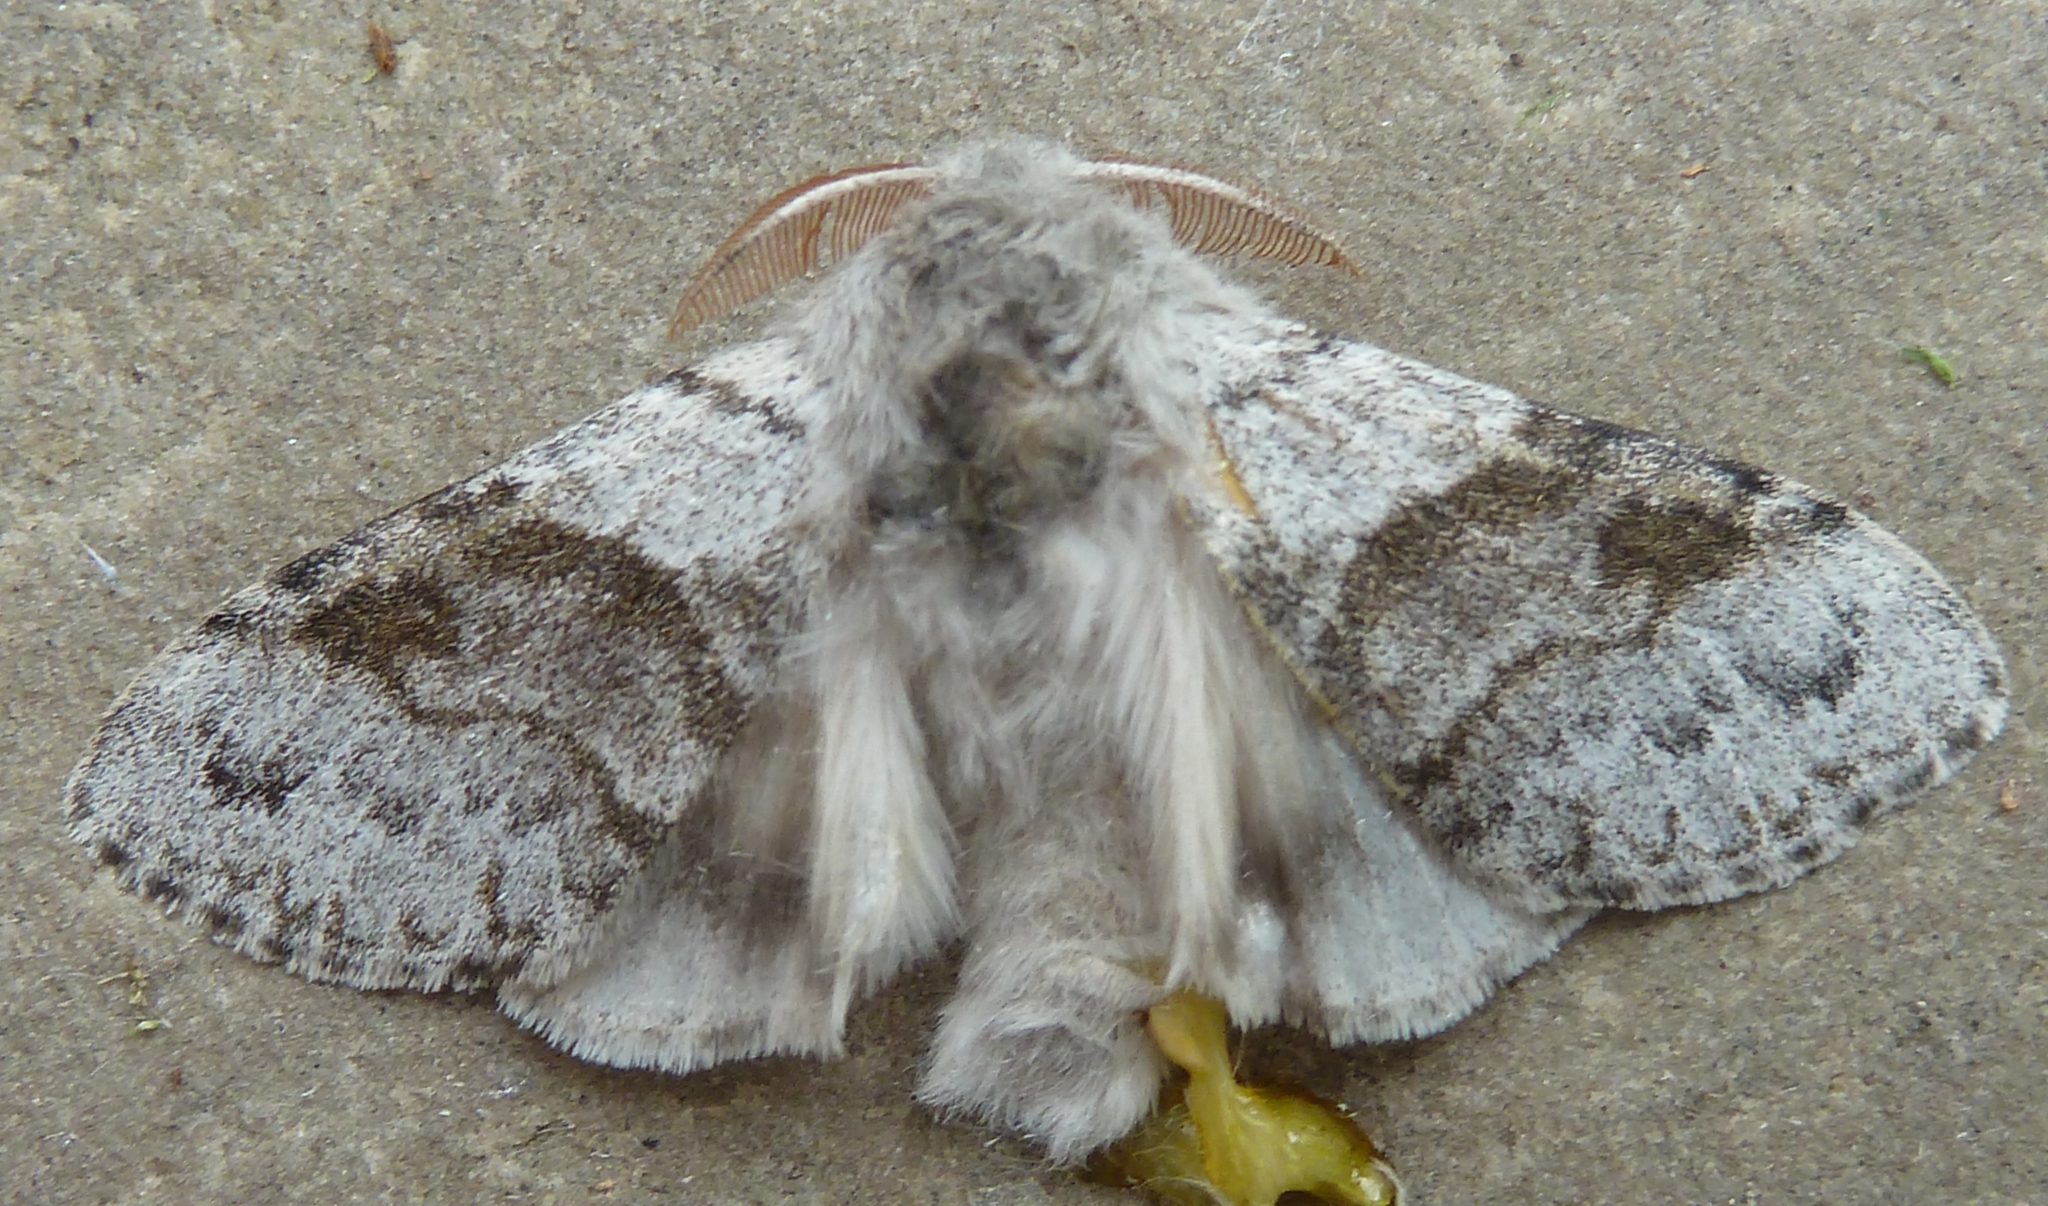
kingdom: Animalia
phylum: Arthropoda
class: Insecta
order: Lepidoptera
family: Erebidae
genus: Calliteara
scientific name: Calliteara pudibunda
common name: Pale tussock
